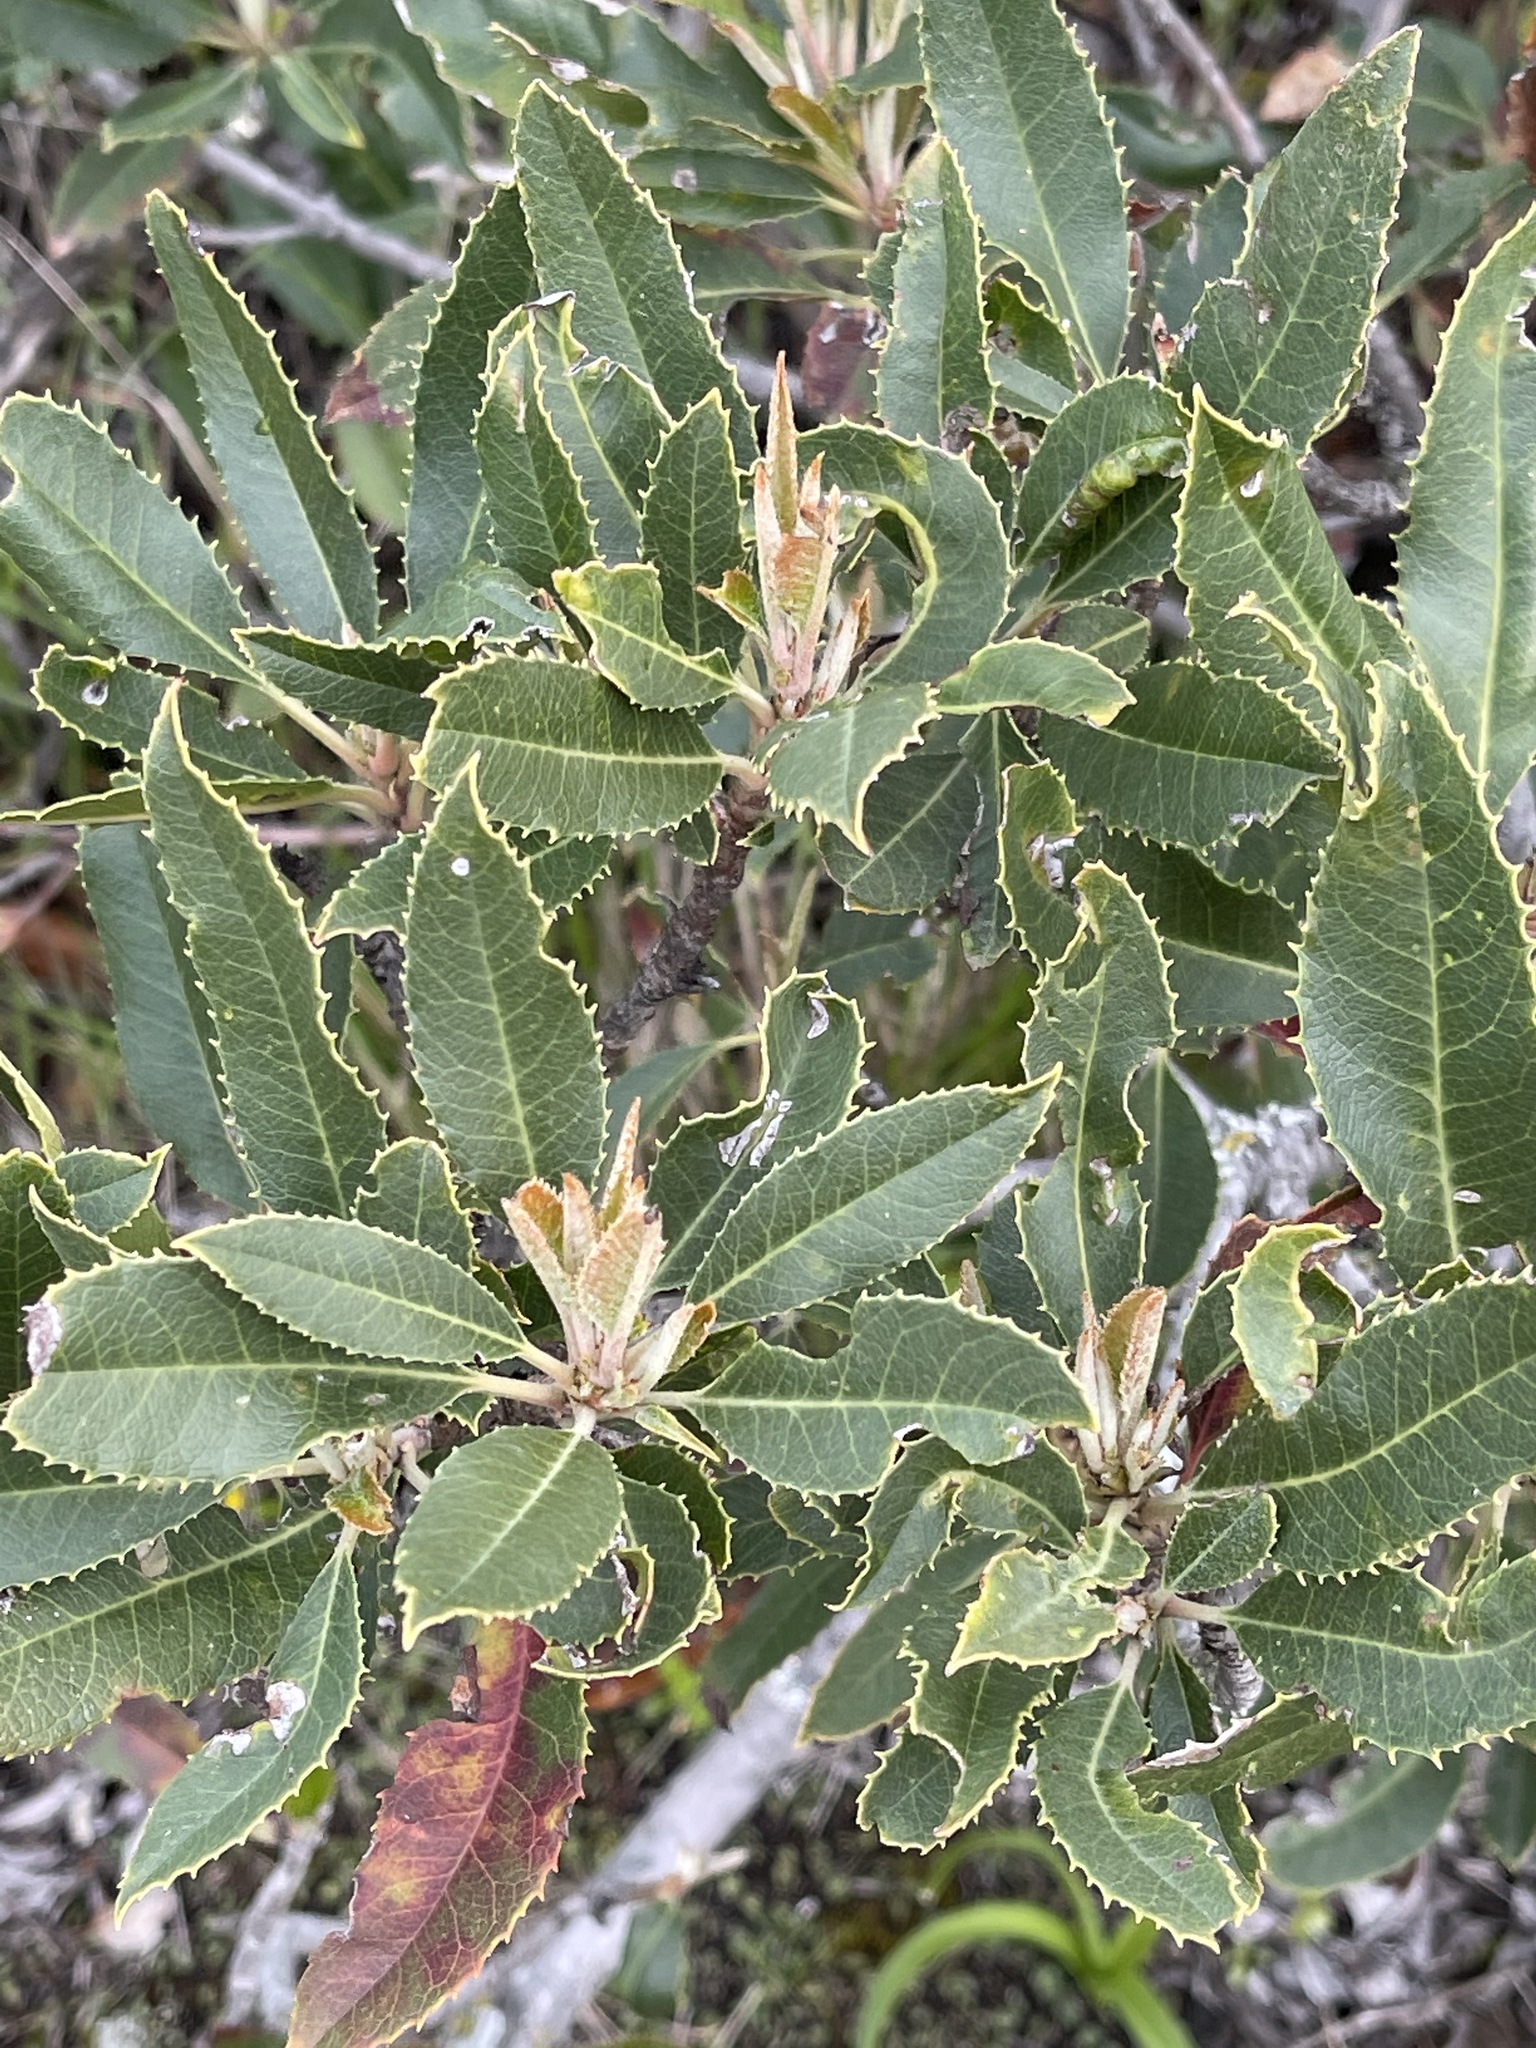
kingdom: Plantae
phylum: Tracheophyta
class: Magnoliopsida
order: Rosales
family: Rosaceae
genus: Heteromeles
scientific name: Heteromeles arbutifolia
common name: California-holly
